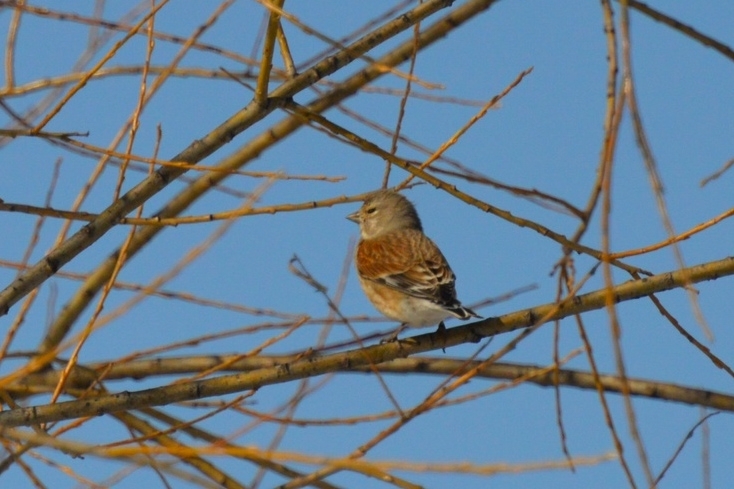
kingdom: Animalia
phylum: Chordata
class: Aves
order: Passeriformes
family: Fringillidae
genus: Linaria
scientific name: Linaria cannabina
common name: Common linnet
